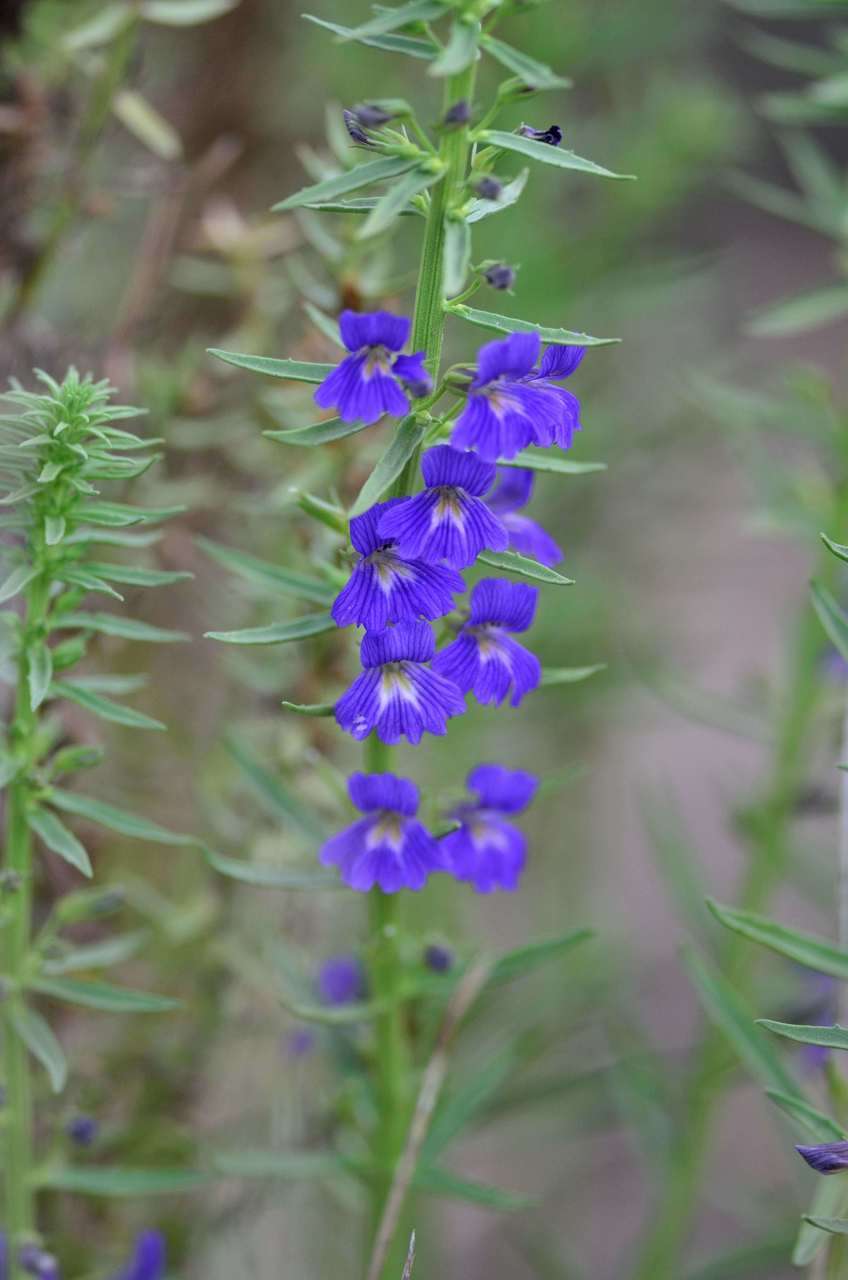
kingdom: Plantae
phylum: Tracheophyta
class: Magnoliopsida
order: Lamiales
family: Plantaginaceae
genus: Stemodia
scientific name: Stemodia florulenta
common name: Bluerod
